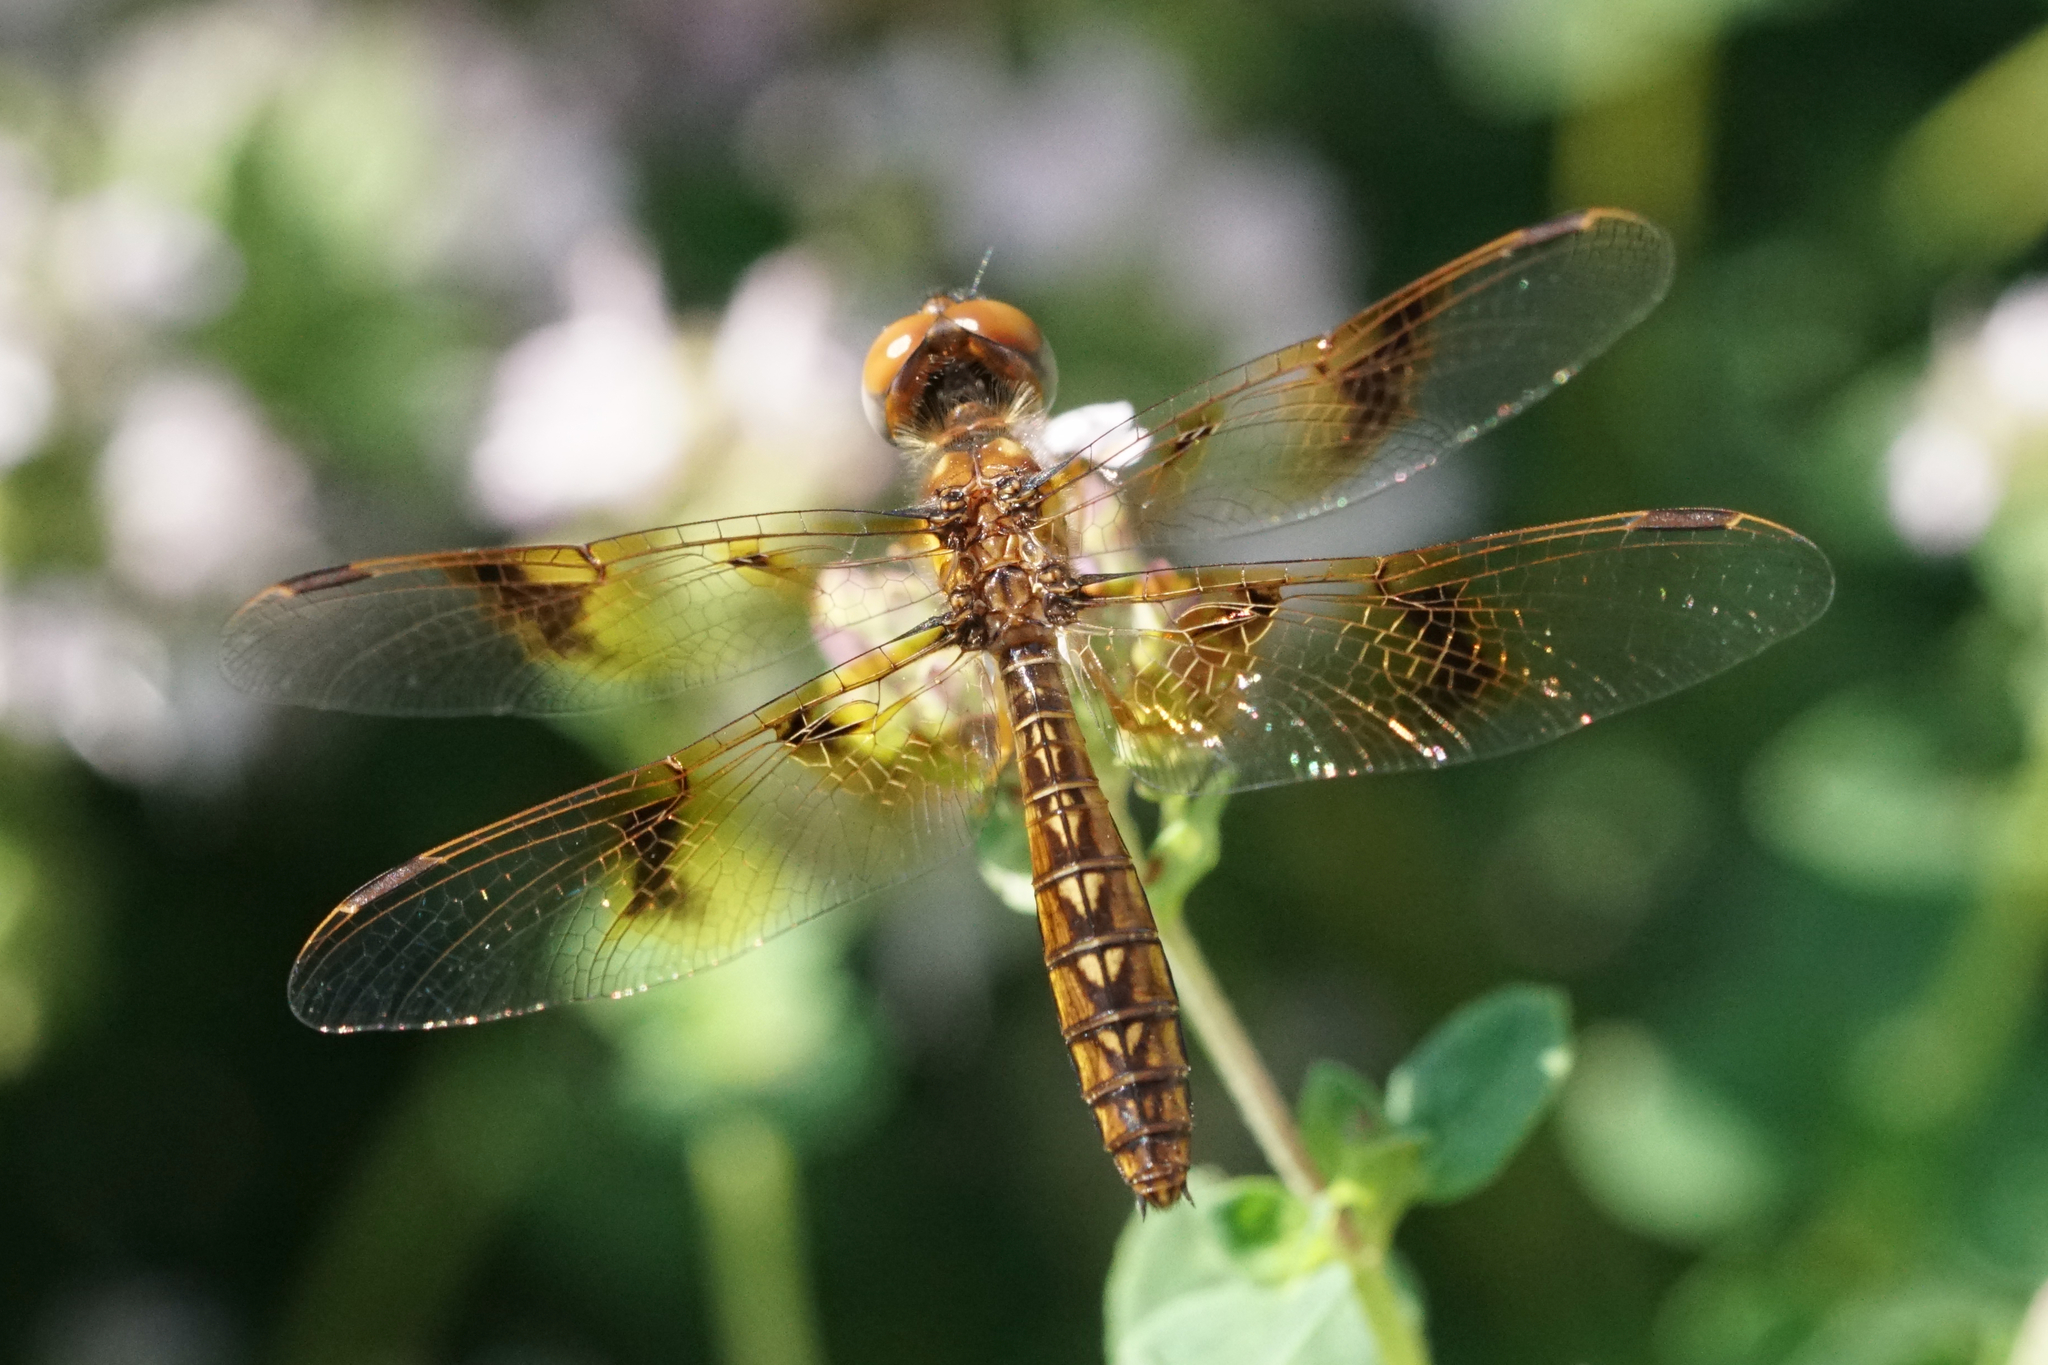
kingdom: Animalia
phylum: Arthropoda
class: Insecta
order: Odonata
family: Libellulidae
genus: Perithemis
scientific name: Perithemis tenera
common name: Eastern amberwing
